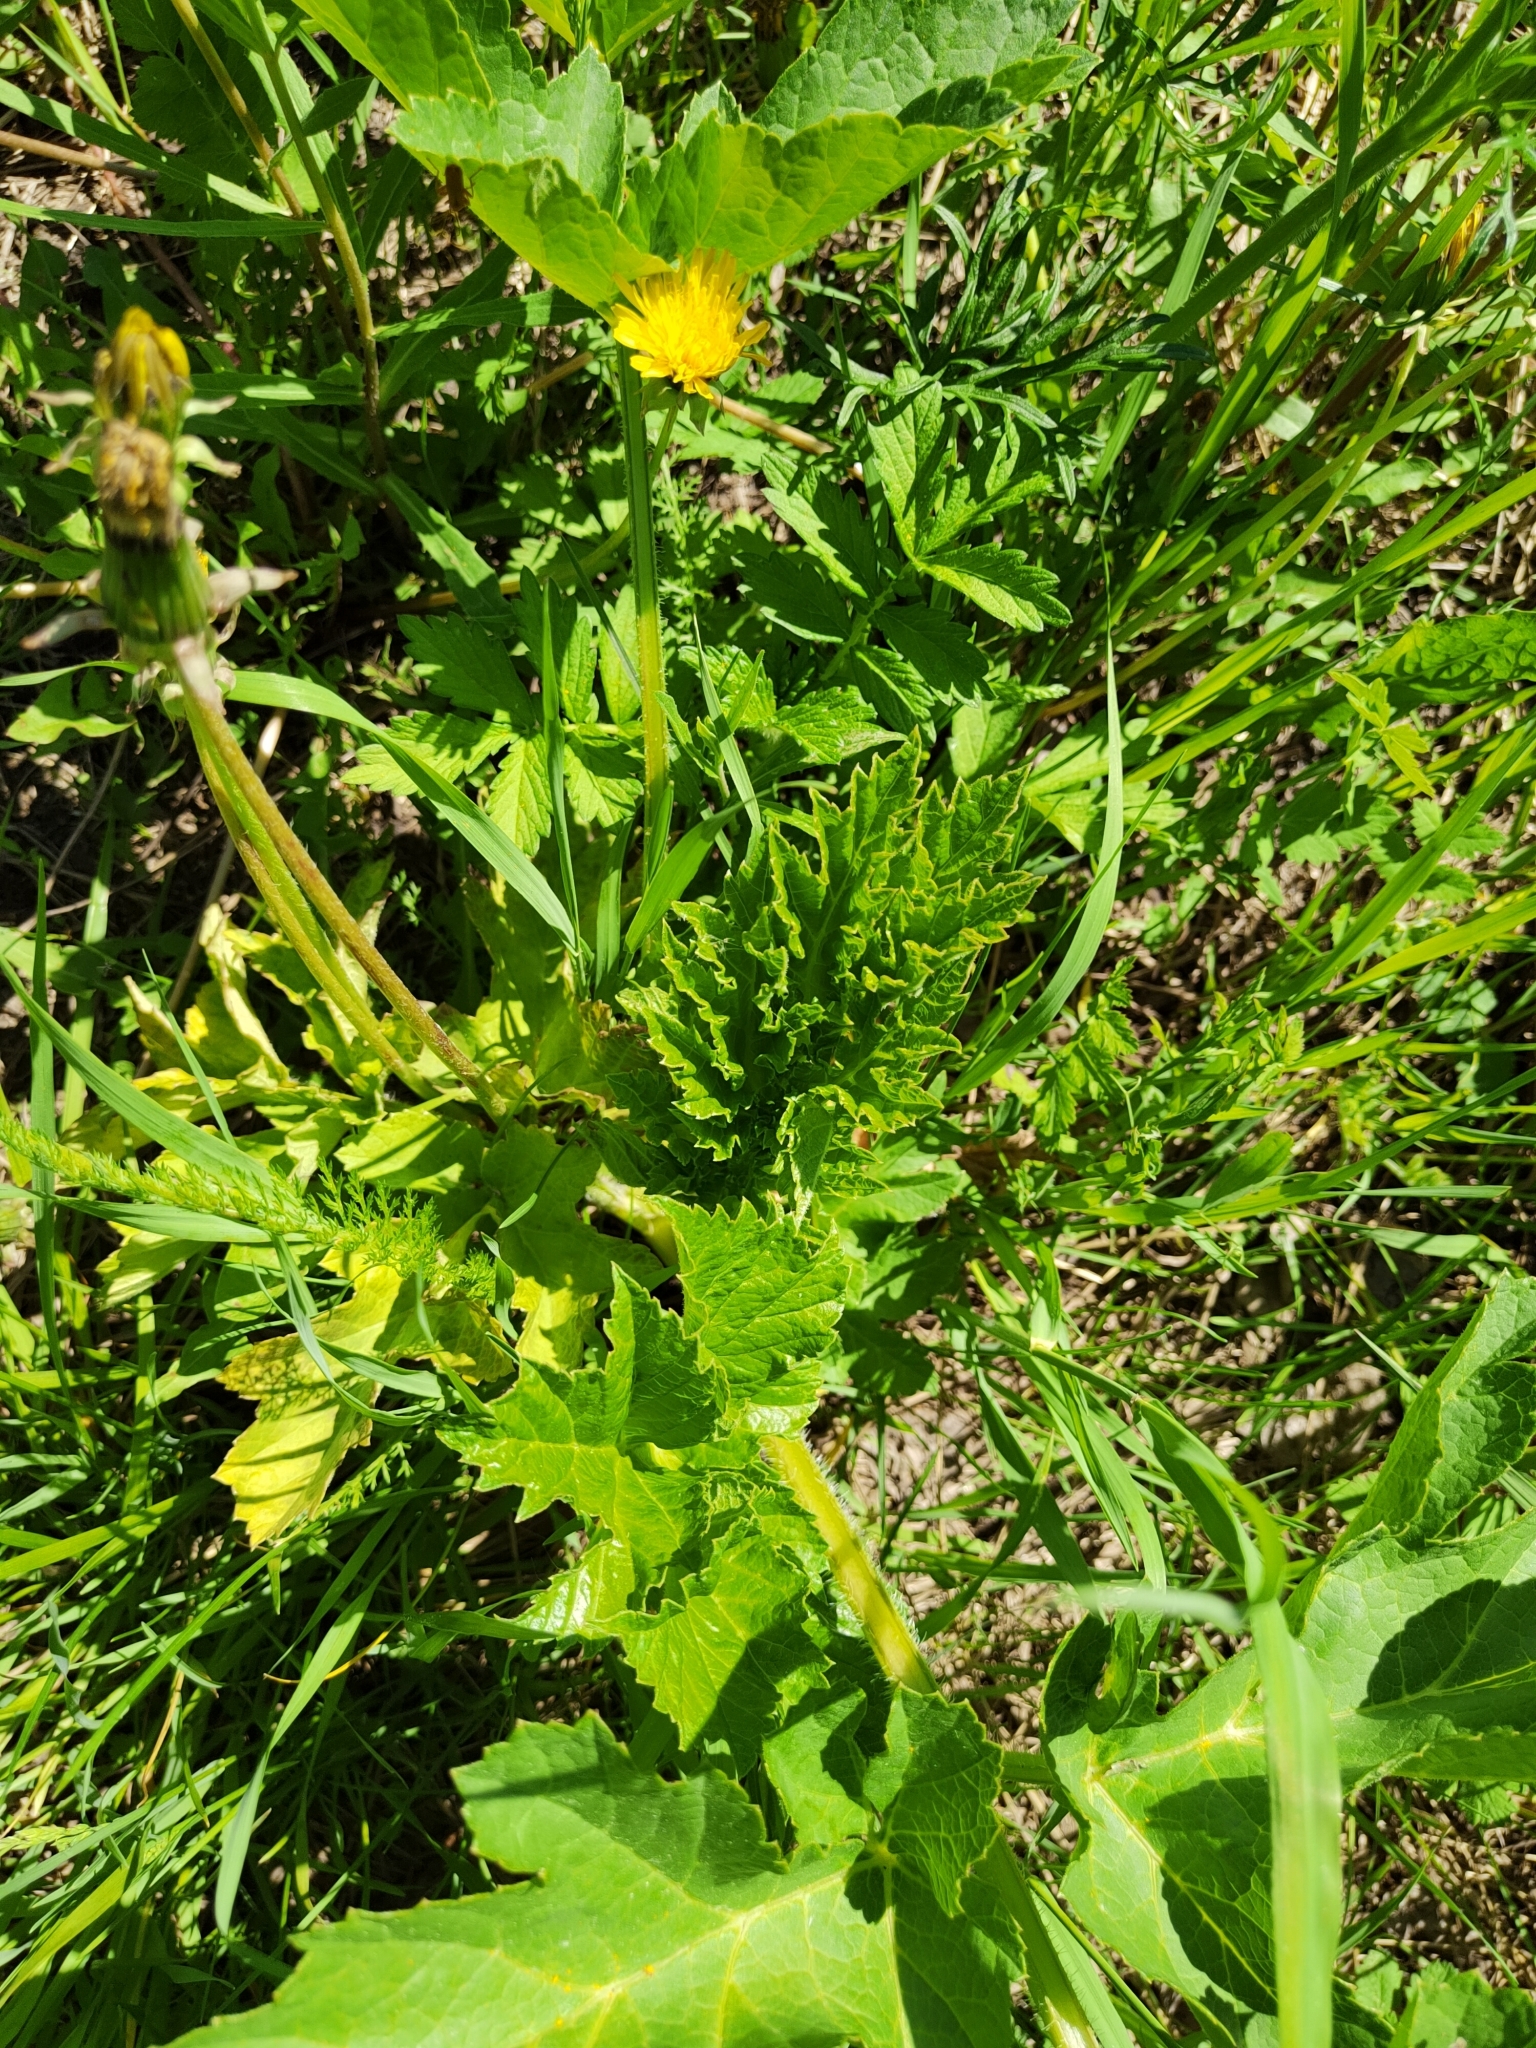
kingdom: Plantae
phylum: Tracheophyta
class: Magnoliopsida
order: Apiales
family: Apiaceae
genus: Heracleum
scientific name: Heracleum sphondylium
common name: Hogweed
